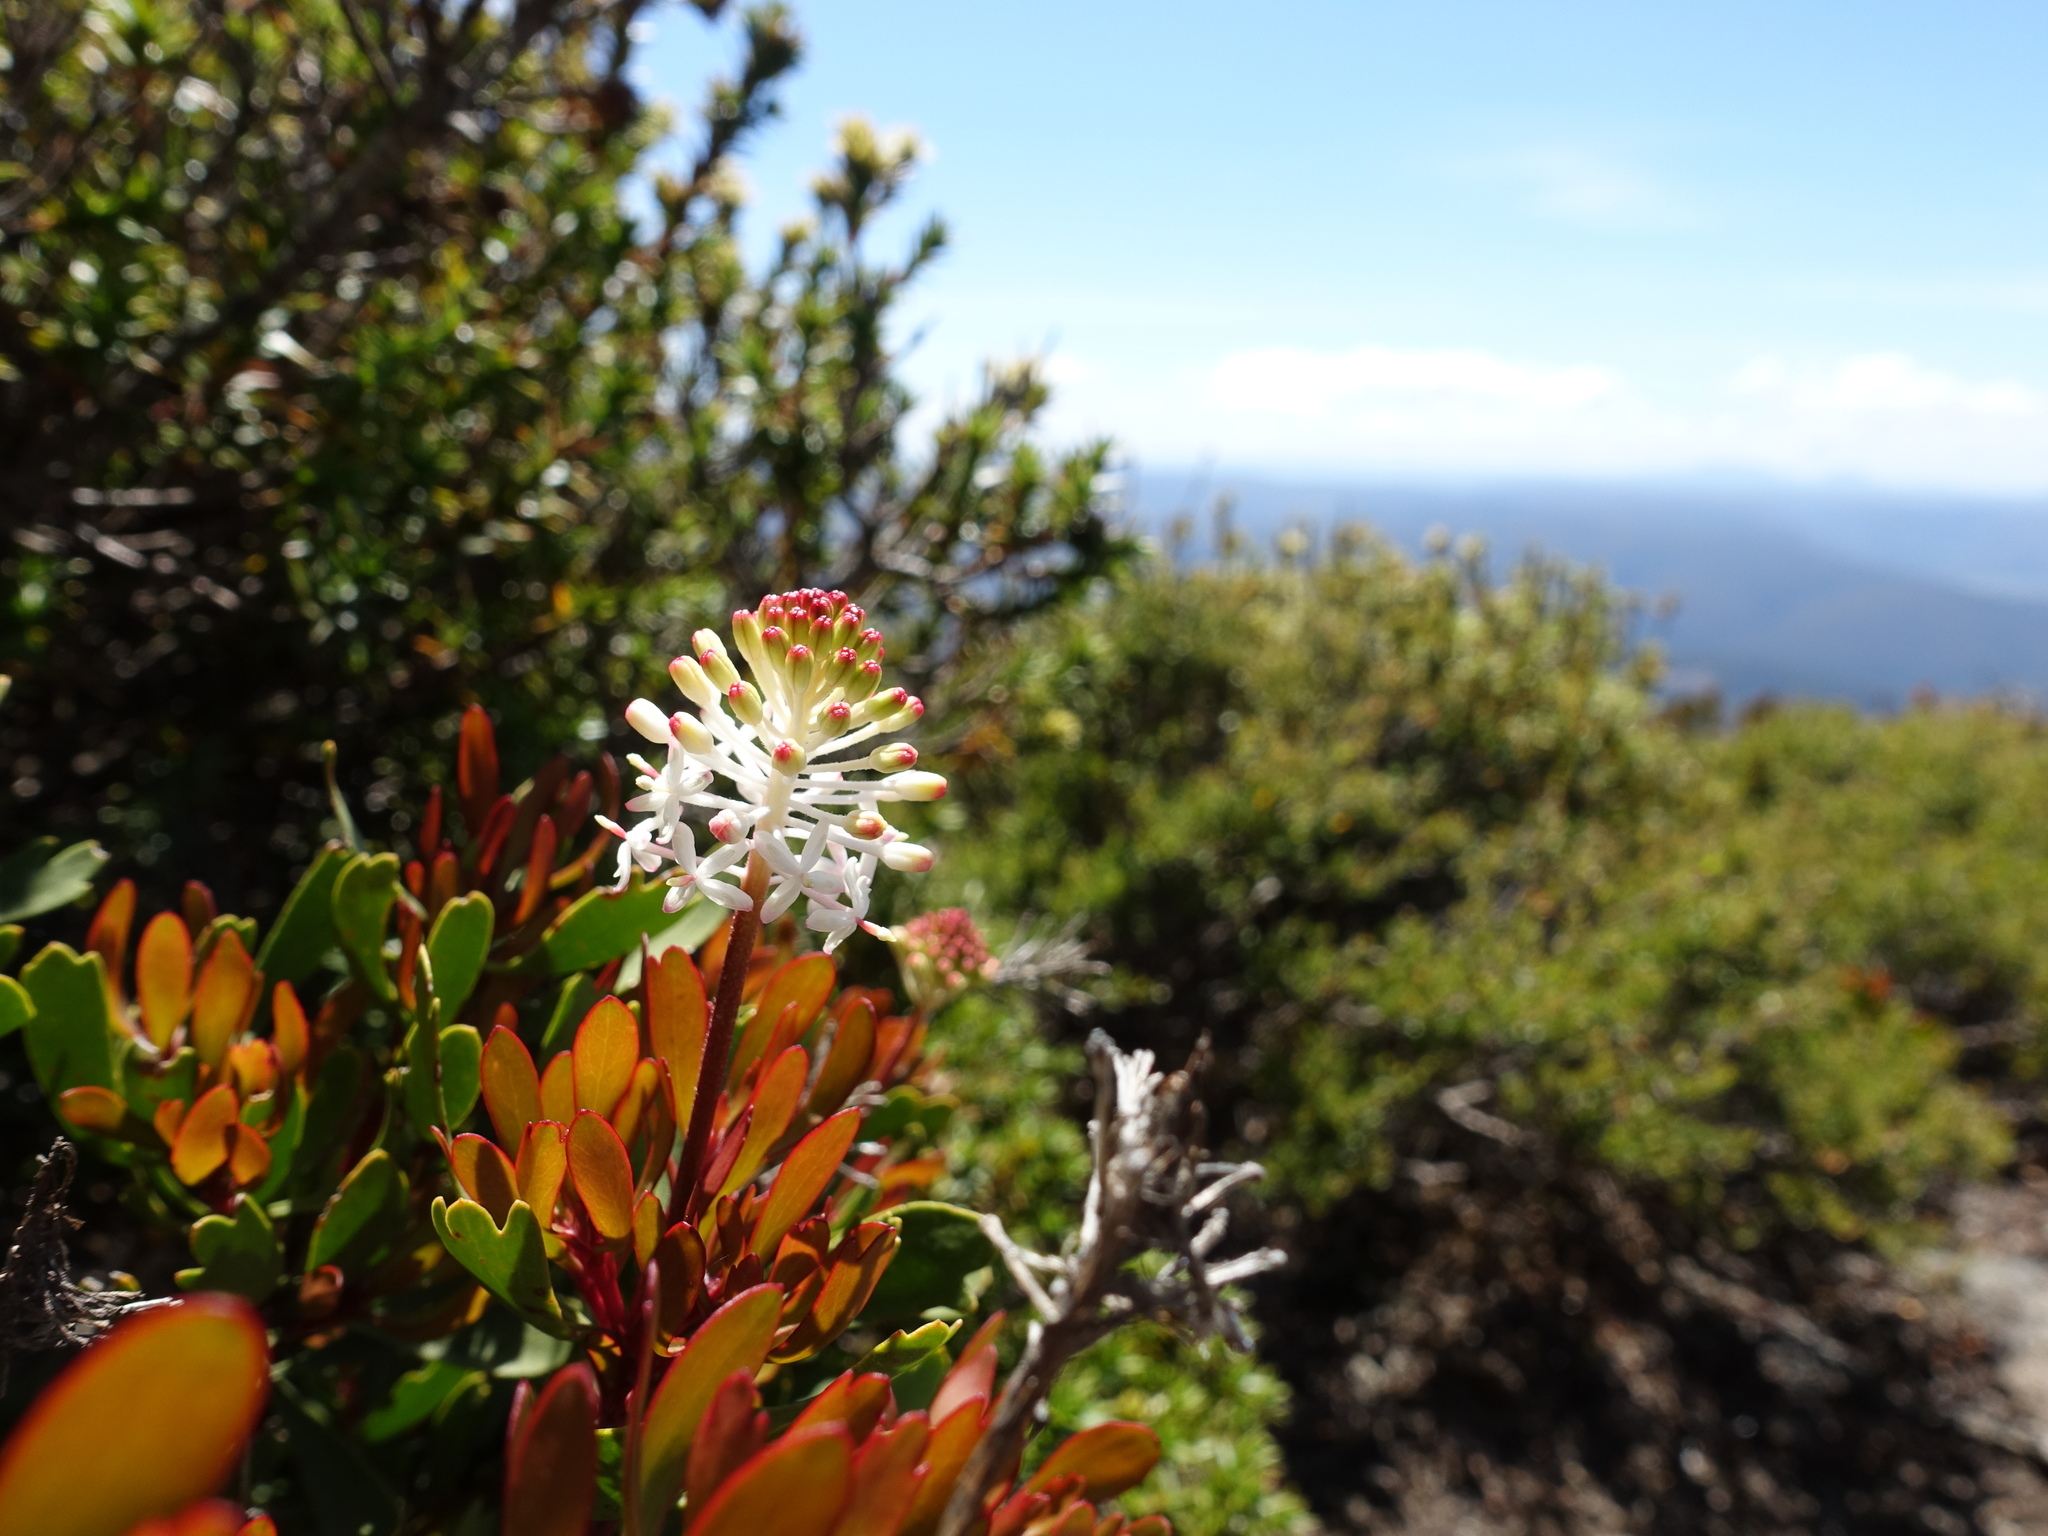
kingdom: Plantae
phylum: Tracheophyta
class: Magnoliopsida
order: Proteales
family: Proteaceae
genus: Bellendena
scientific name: Bellendena montana
